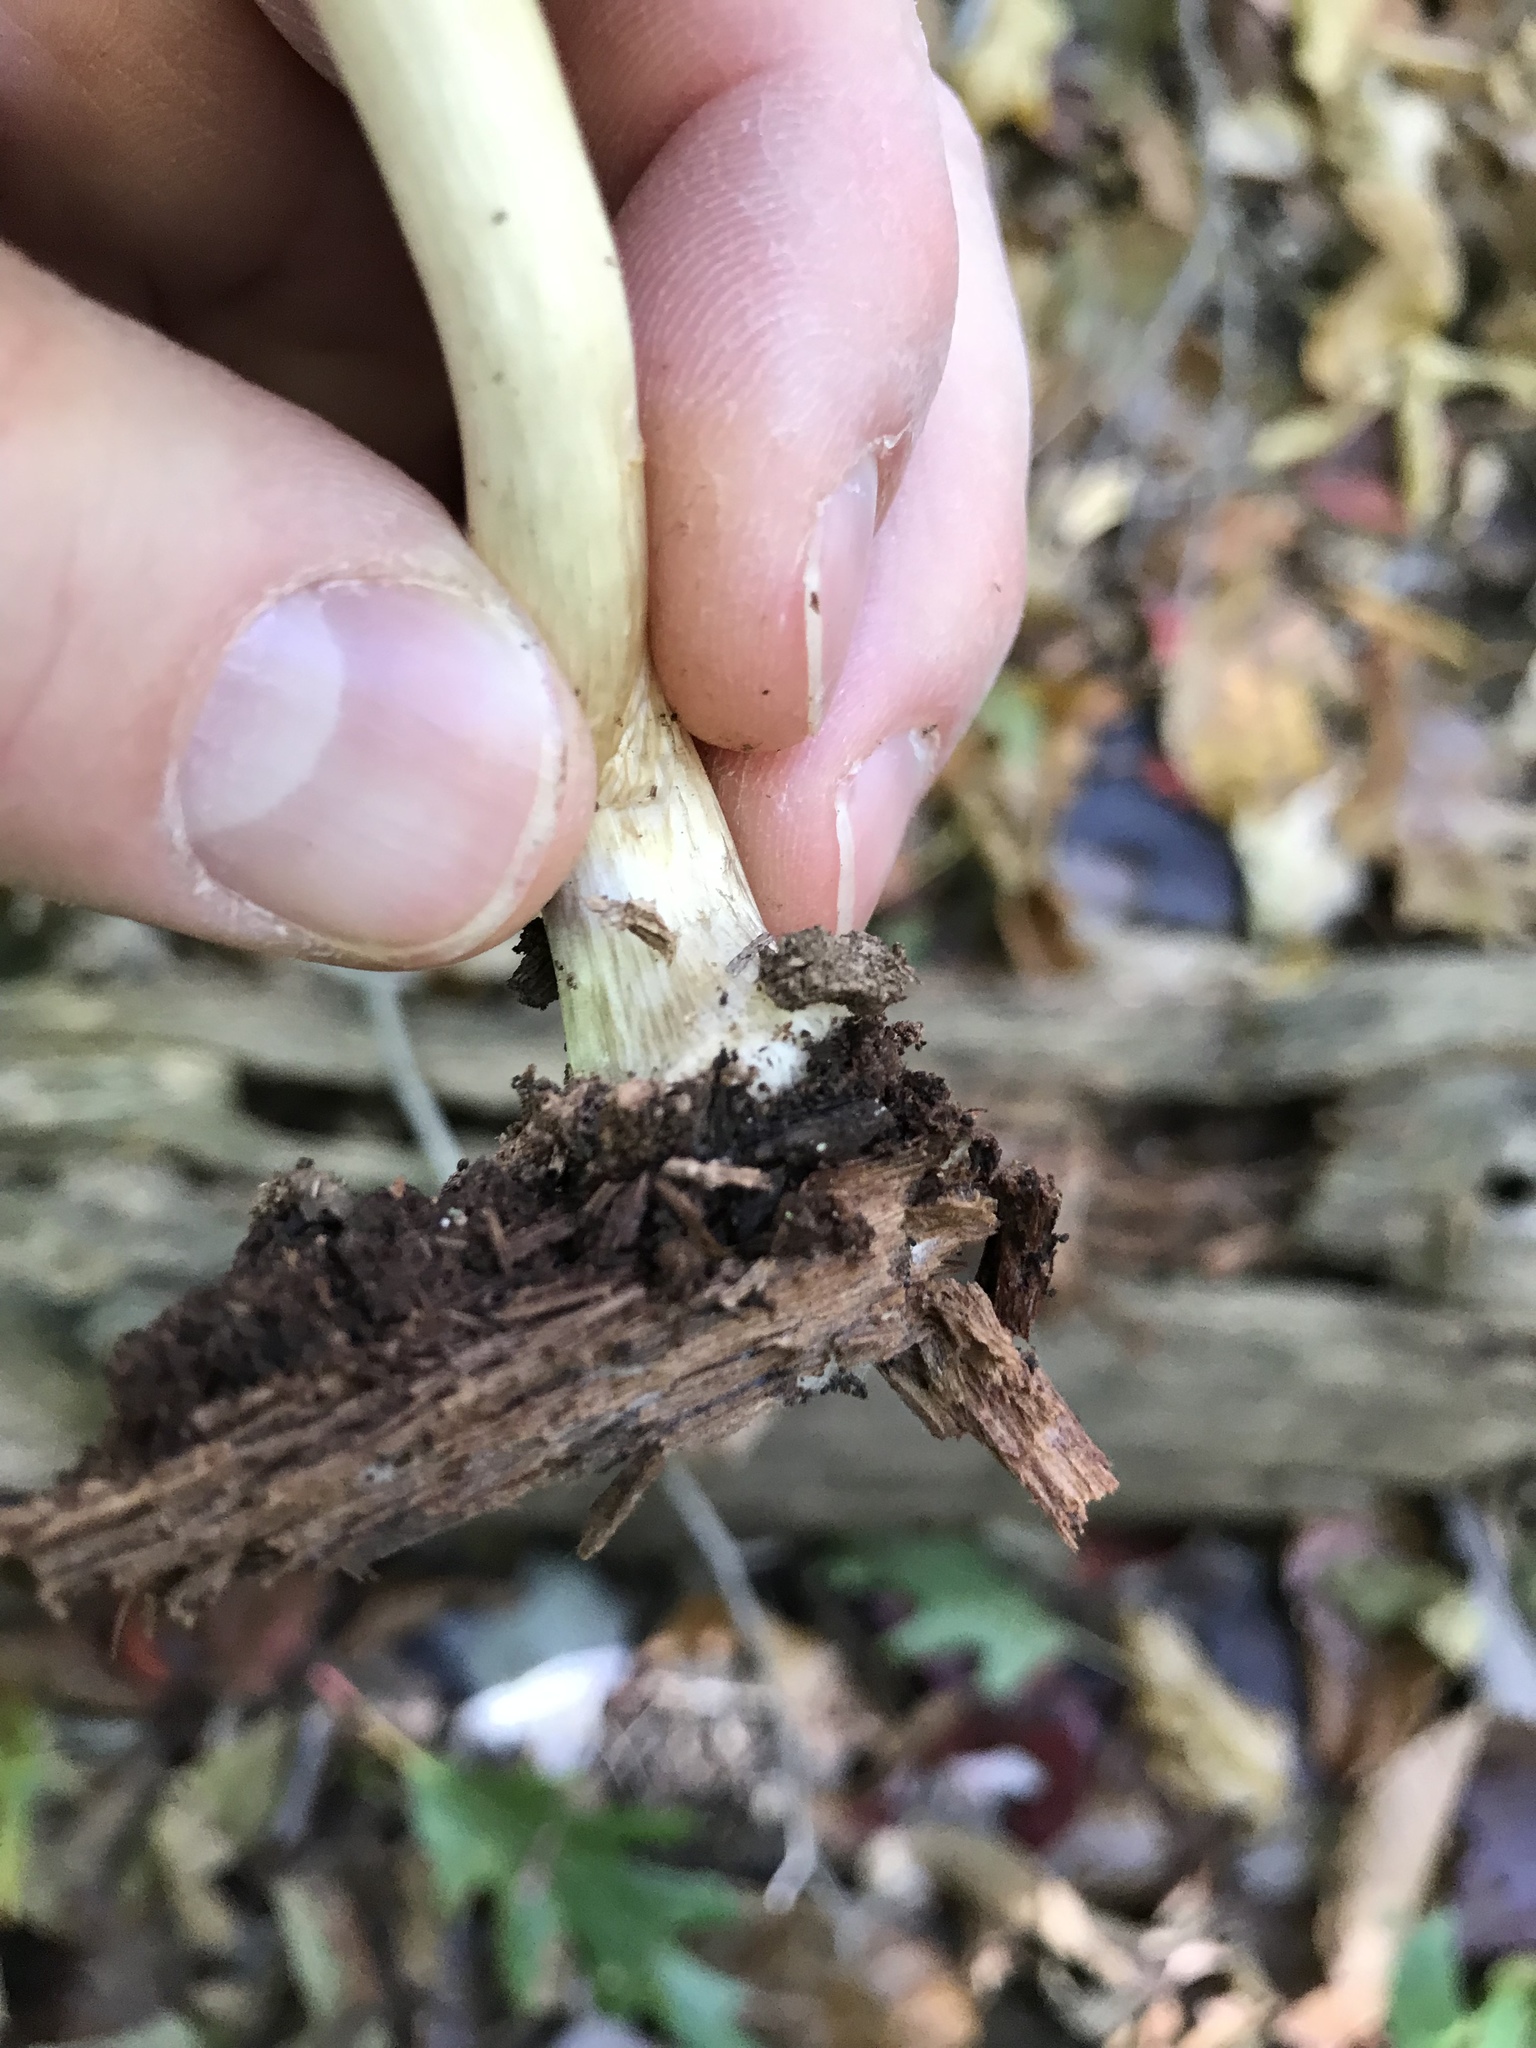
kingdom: Fungi
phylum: Basidiomycota
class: Agaricomycetes
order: Agaricales
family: Pluteaceae
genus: Pluteus
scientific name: Pluteus cervinus
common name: Deer shield
